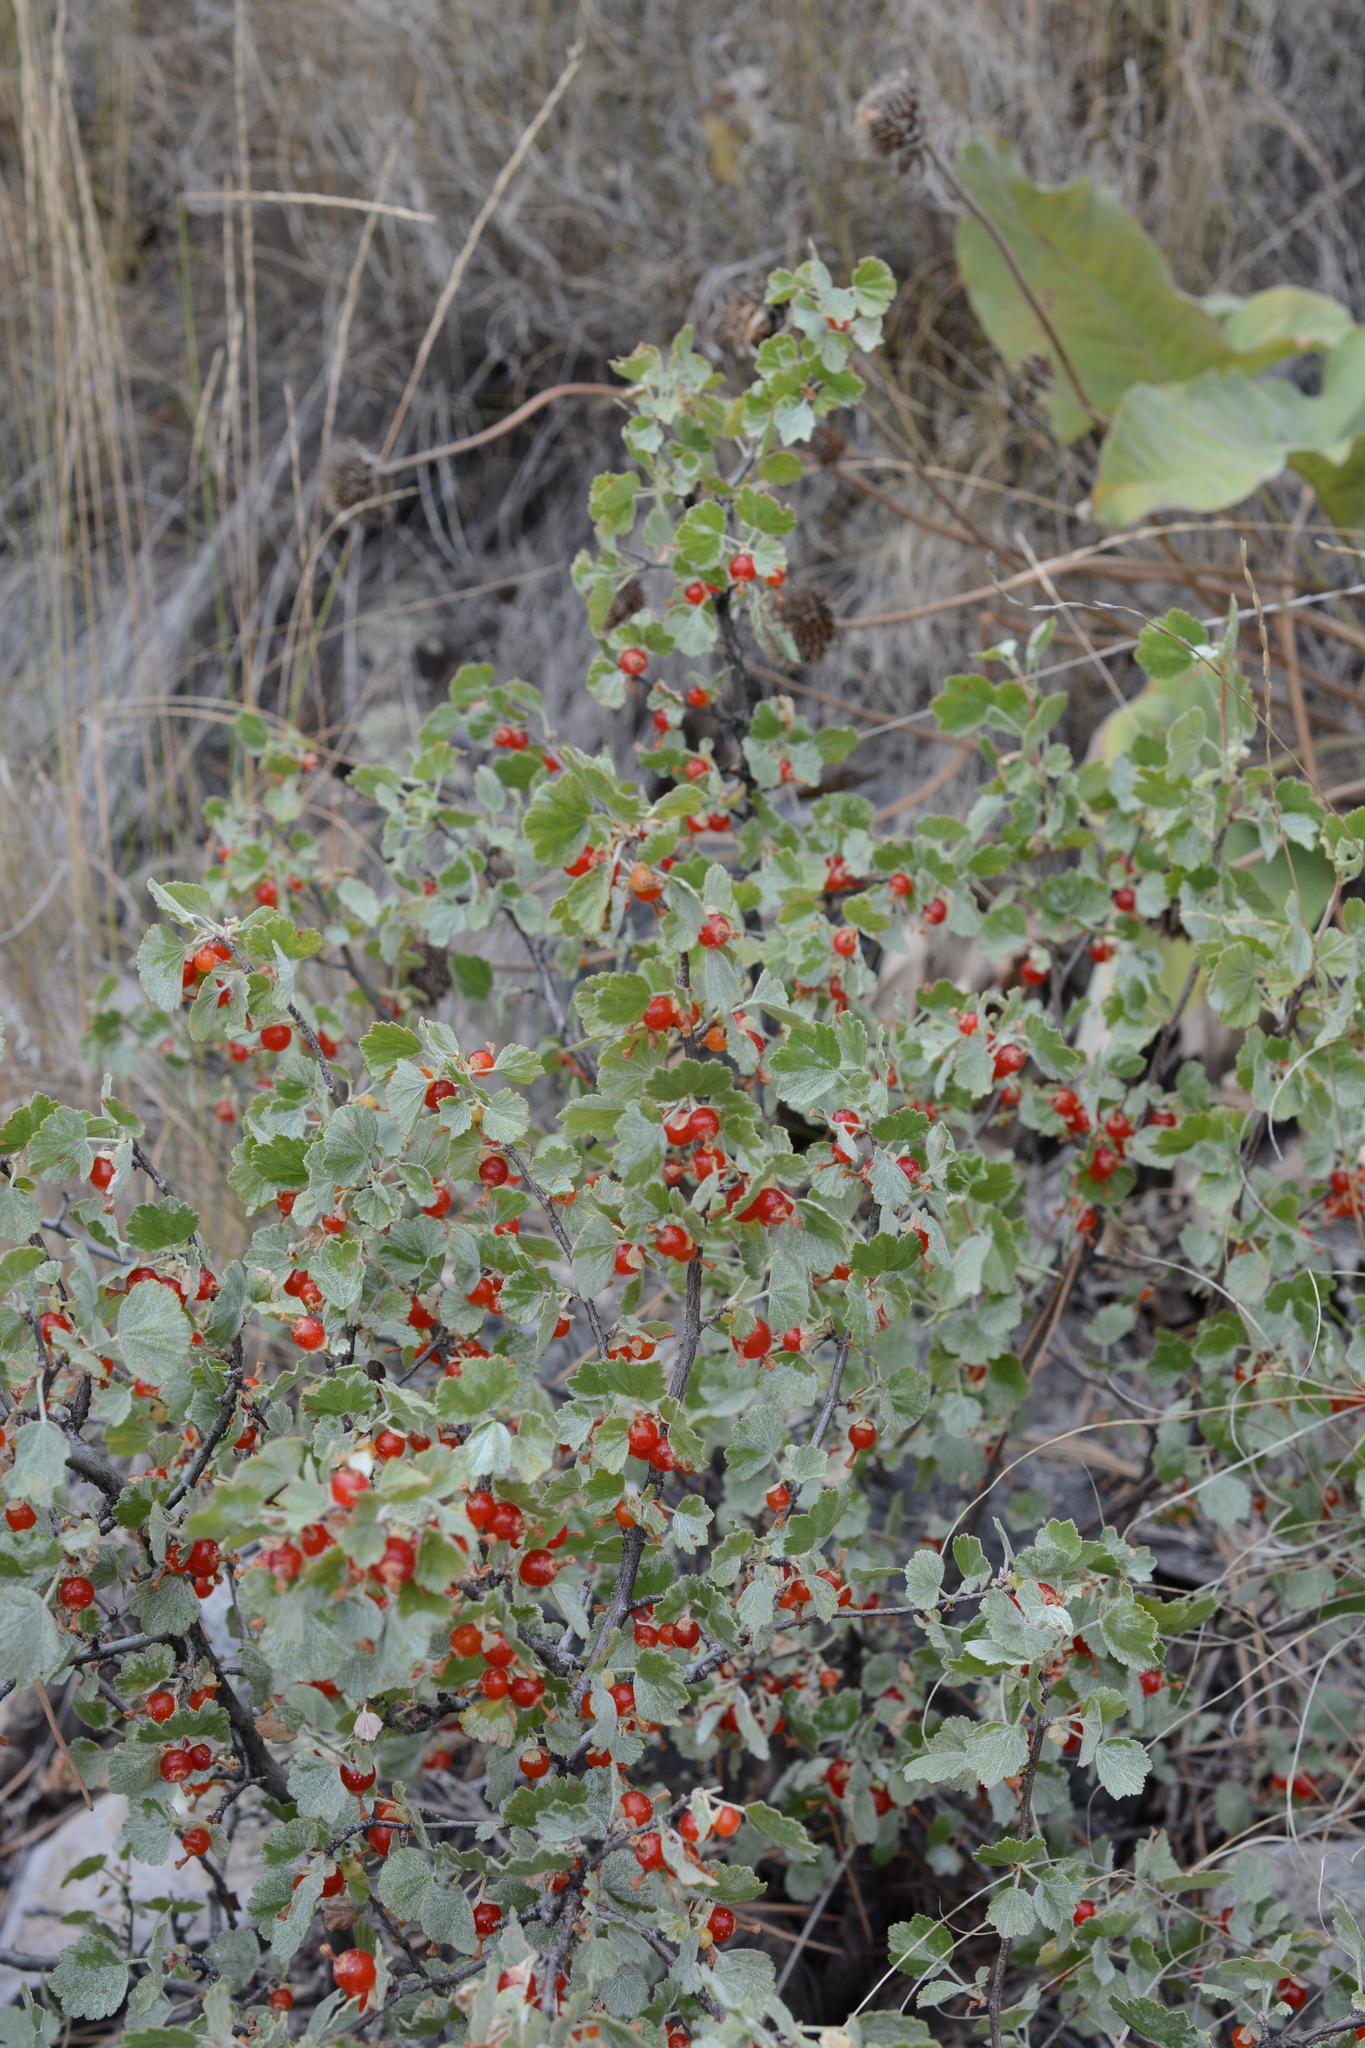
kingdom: Plantae
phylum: Tracheophyta
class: Magnoliopsida
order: Saxifragales
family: Grossulariaceae
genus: Ribes
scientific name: Ribes cereum
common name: Wax currant
